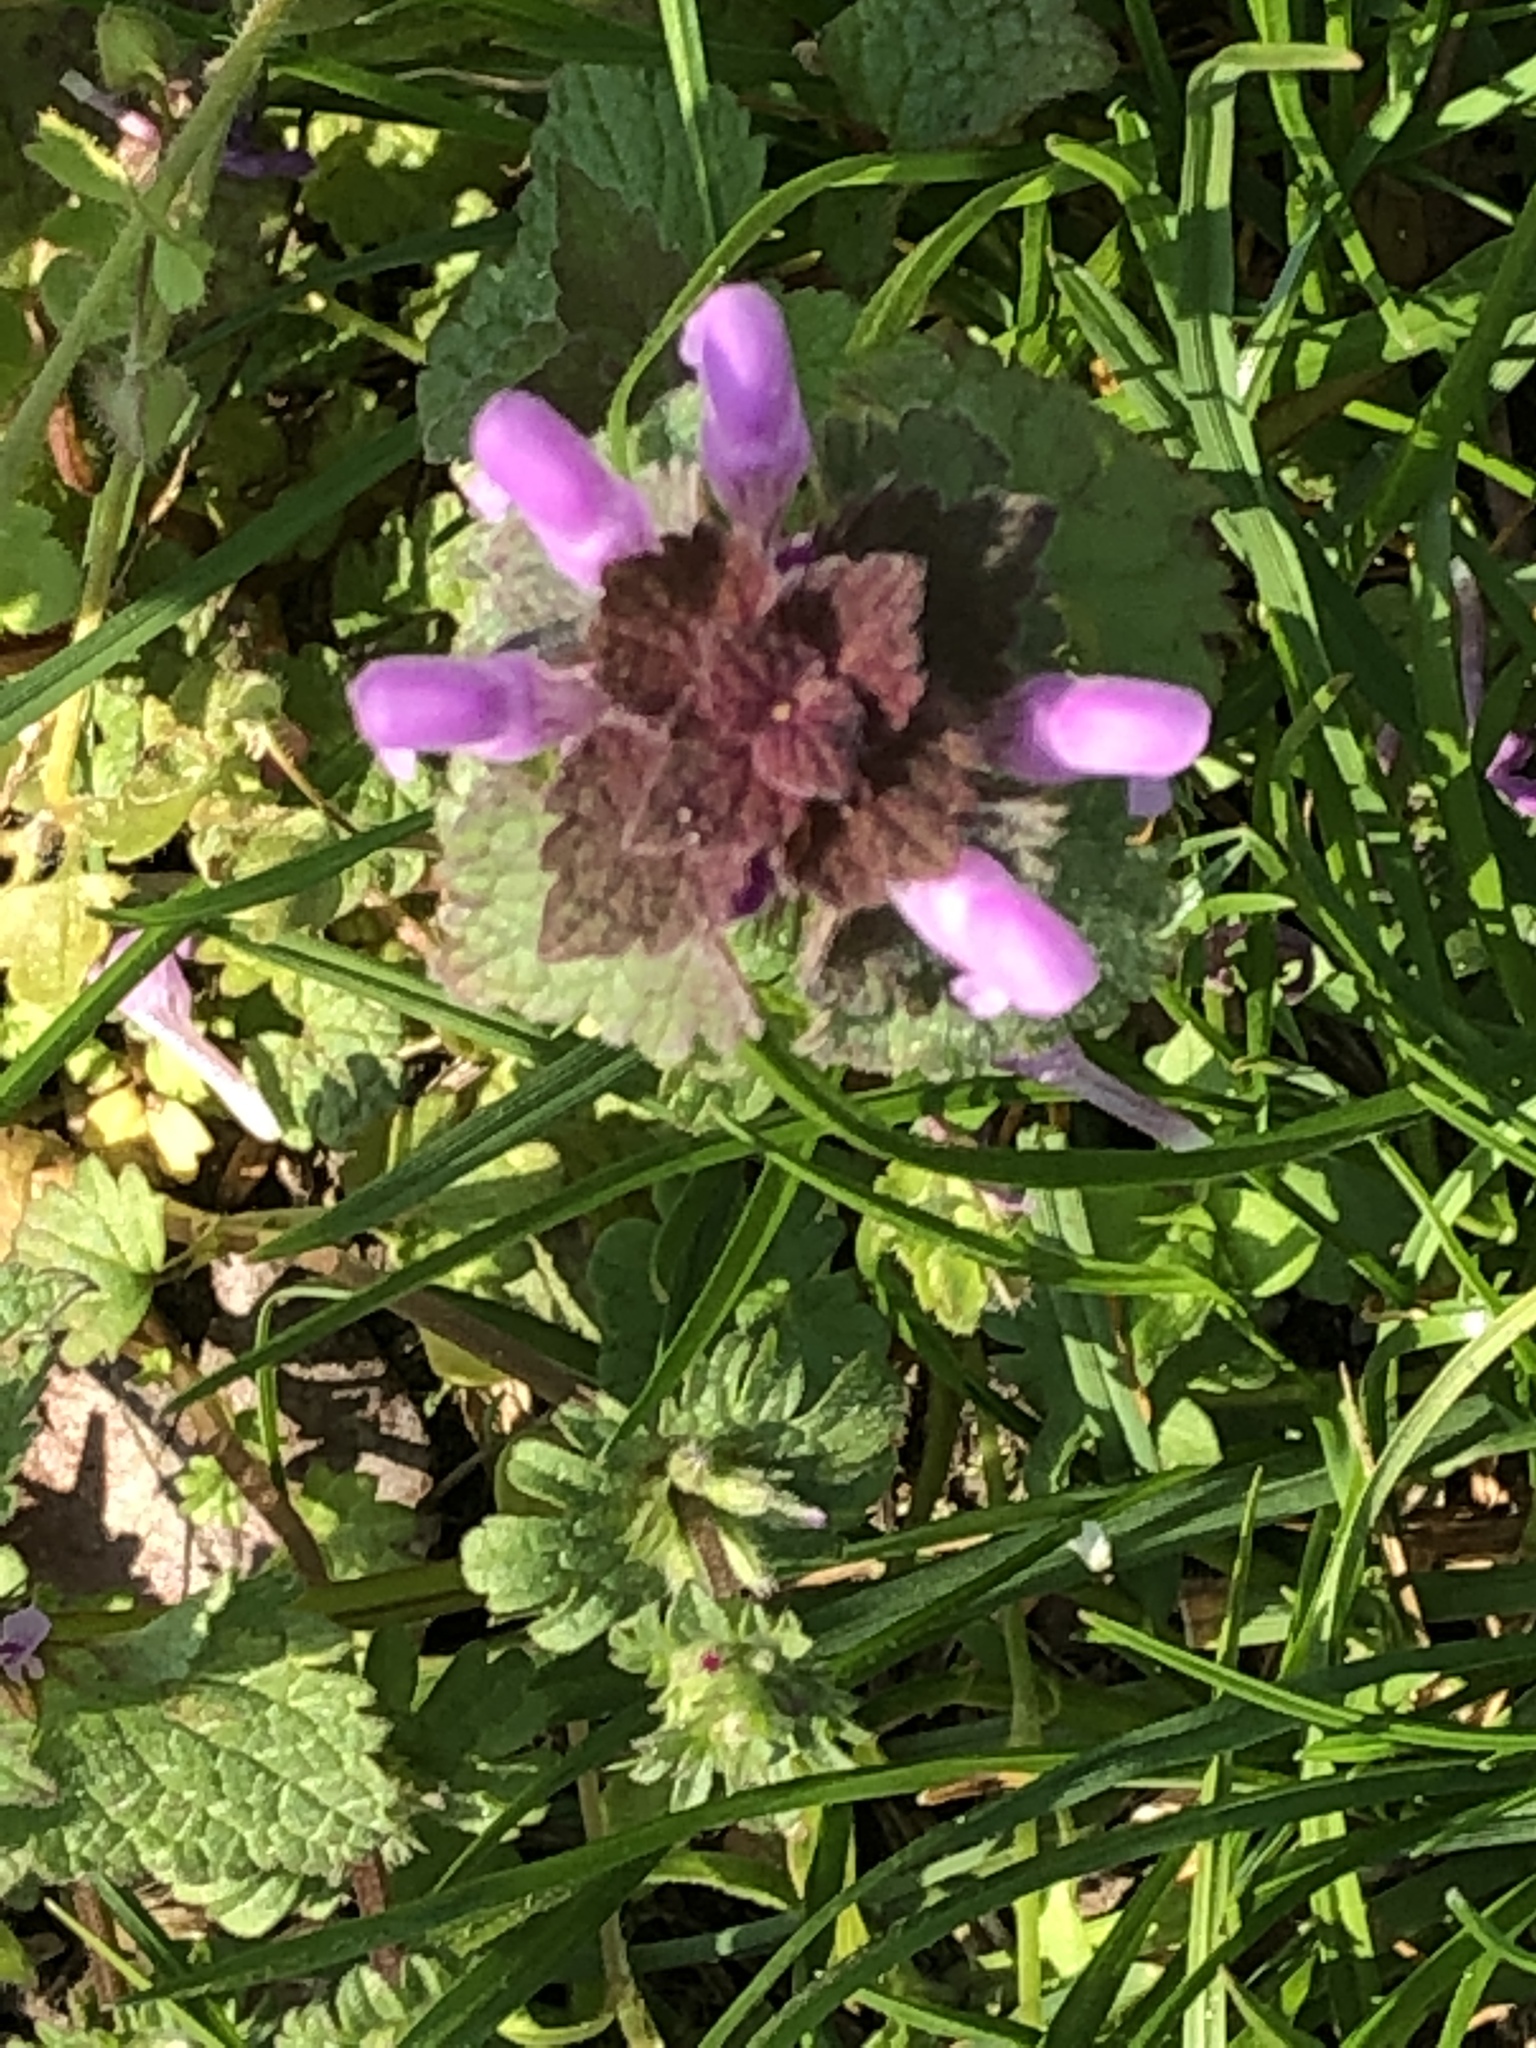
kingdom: Plantae
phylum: Tracheophyta
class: Magnoliopsida
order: Lamiales
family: Lamiaceae
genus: Lamium
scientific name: Lamium purpureum
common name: Red dead-nettle
